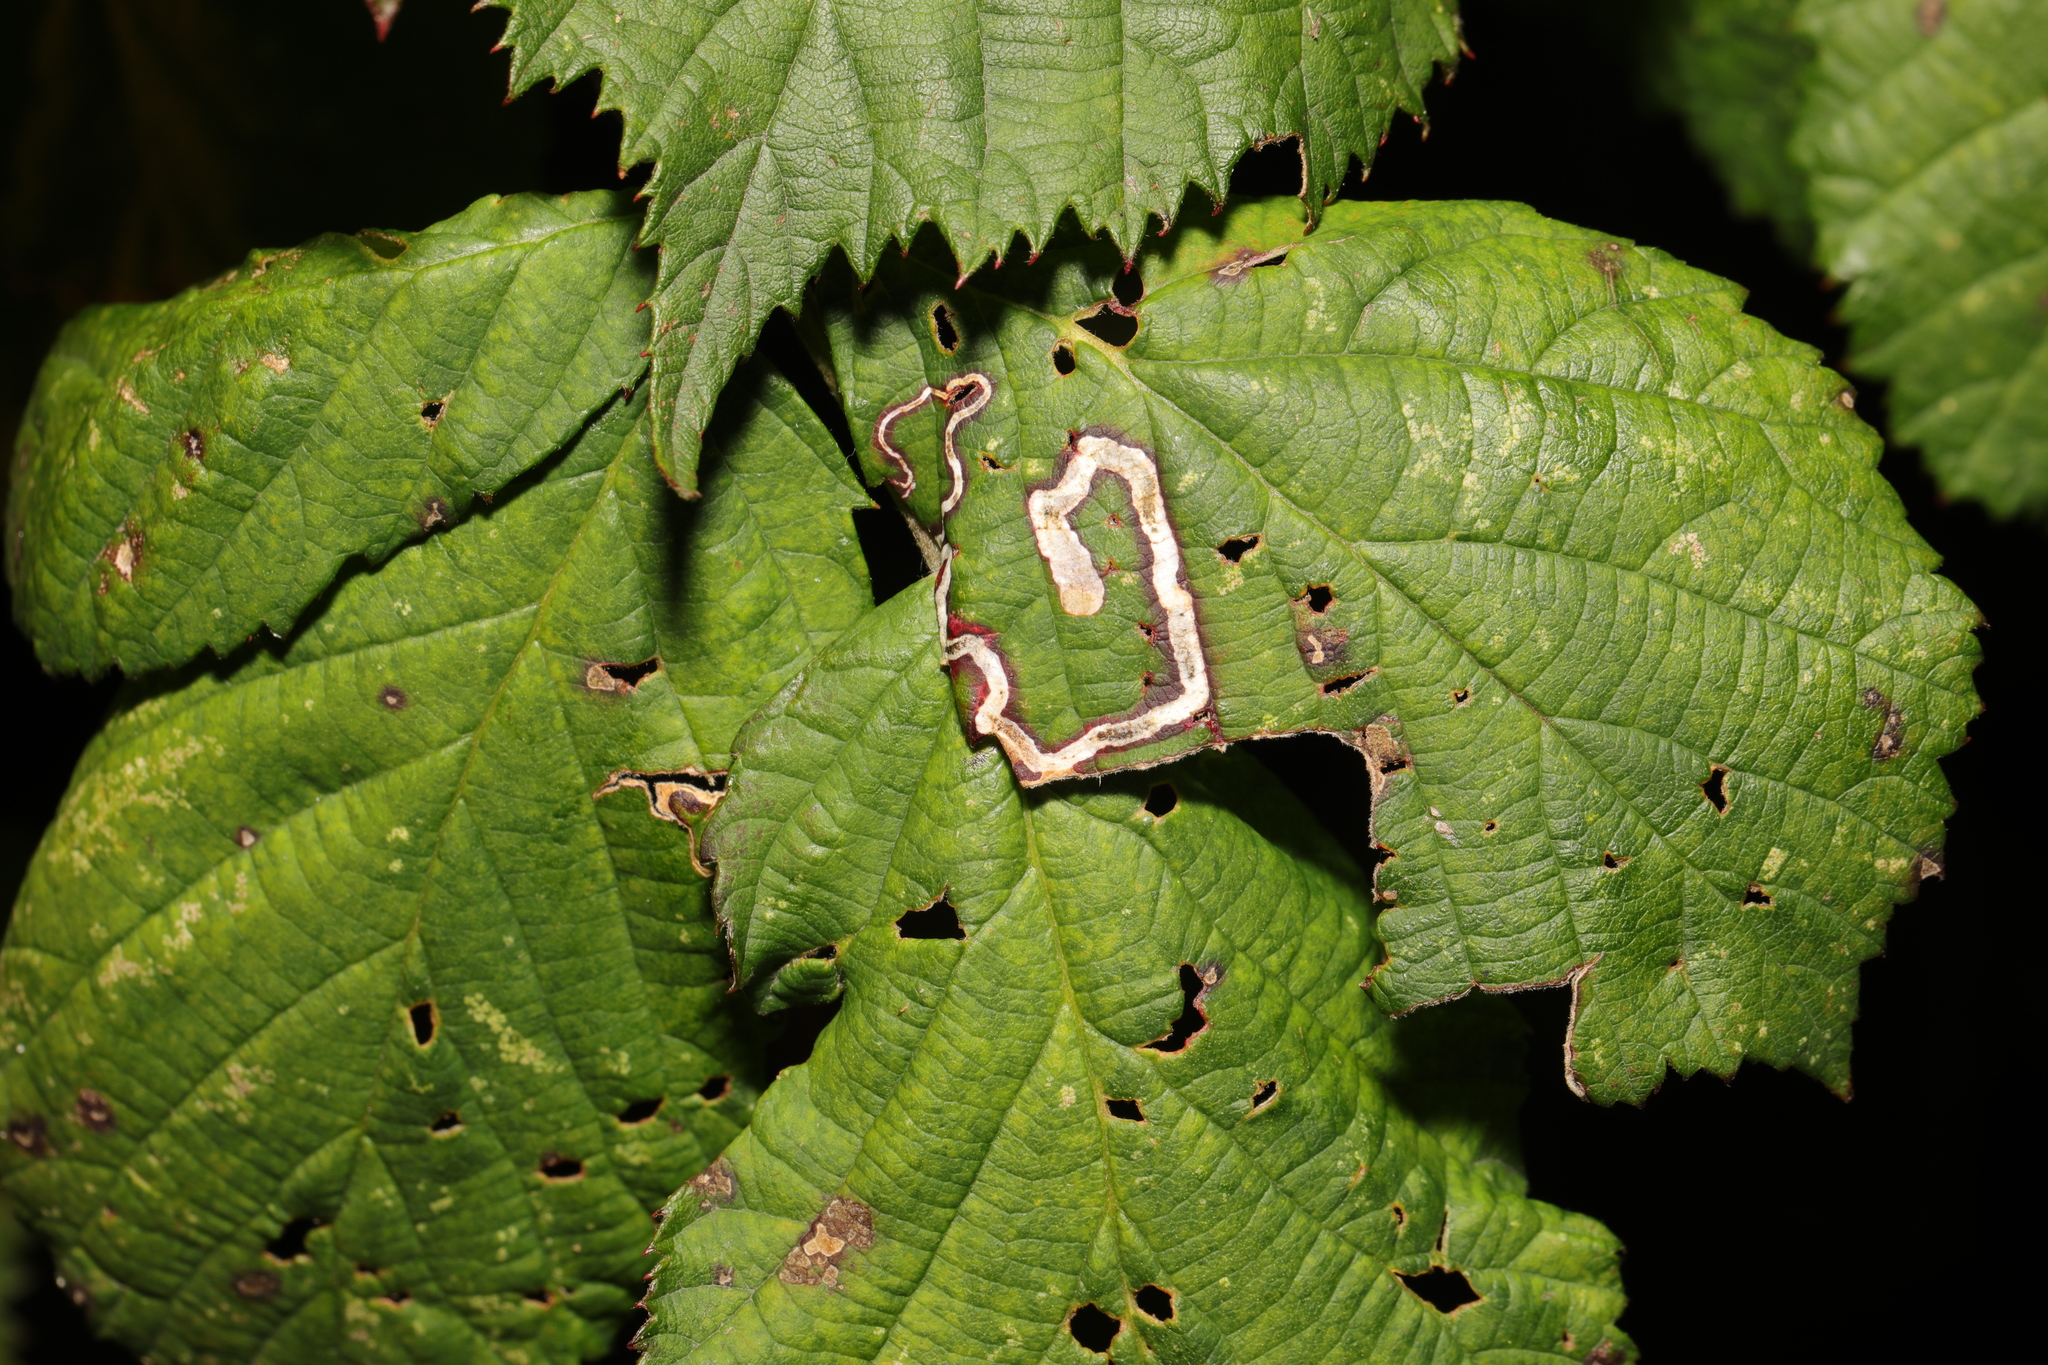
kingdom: Animalia
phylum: Arthropoda
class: Insecta
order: Lepidoptera
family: Nepticulidae
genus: Stigmella
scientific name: Stigmella aurella
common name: Golden pigmy
